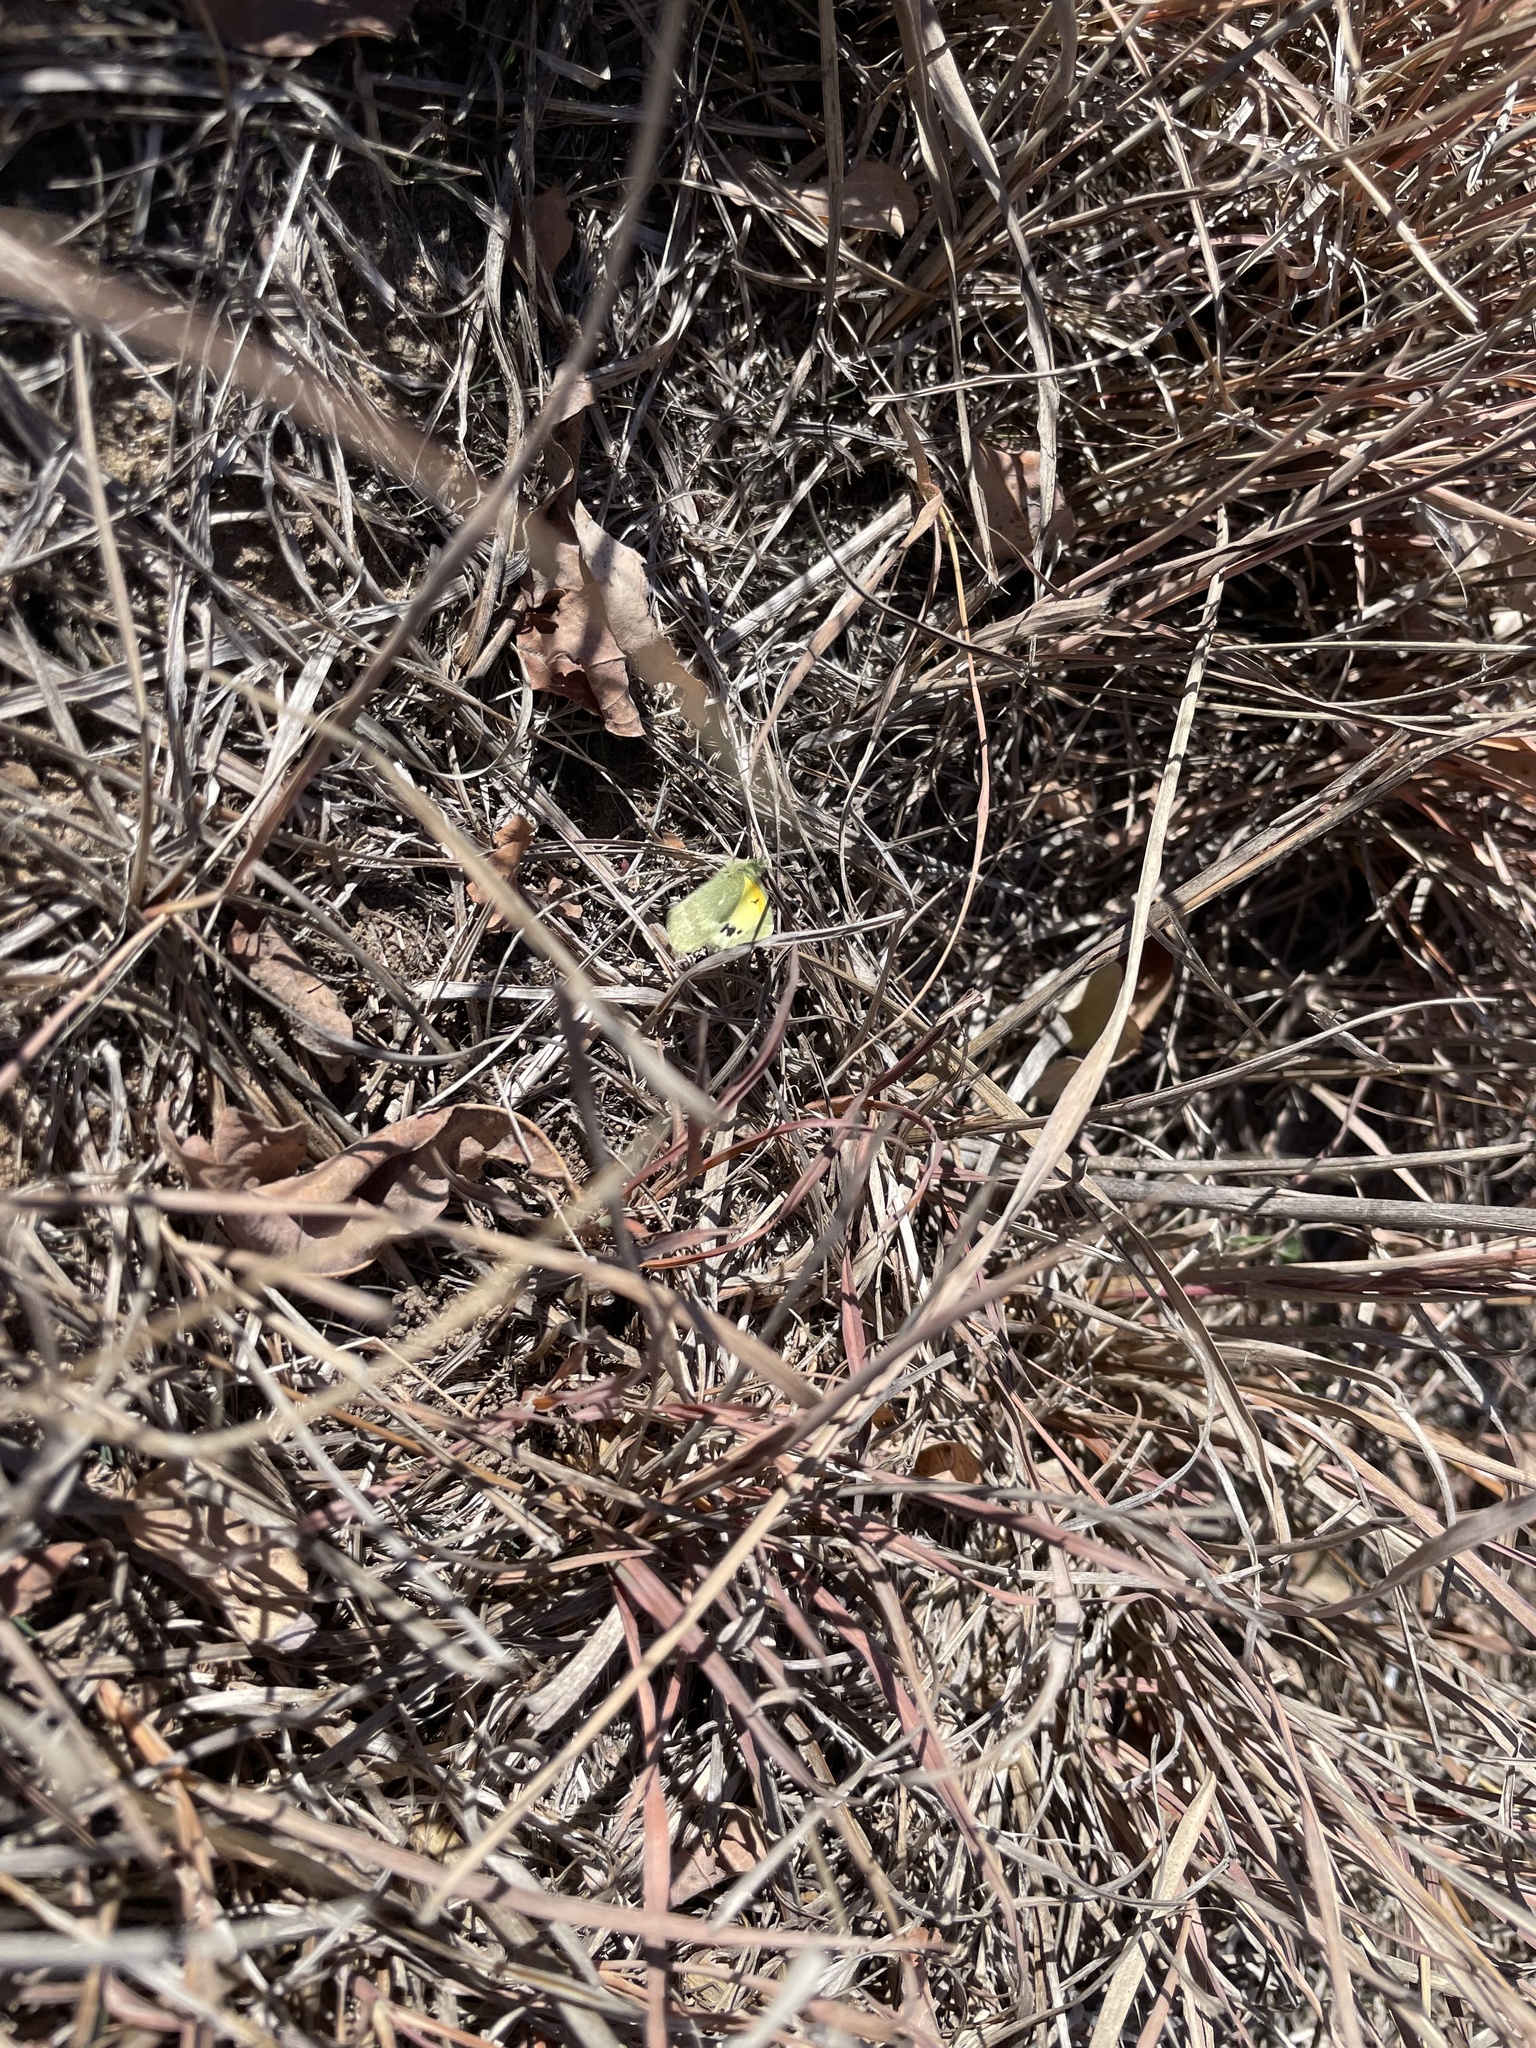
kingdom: Animalia
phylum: Arthropoda
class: Insecta
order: Lepidoptera
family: Pieridae
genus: Nathalis
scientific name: Nathalis iole
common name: Dainty sulphur
